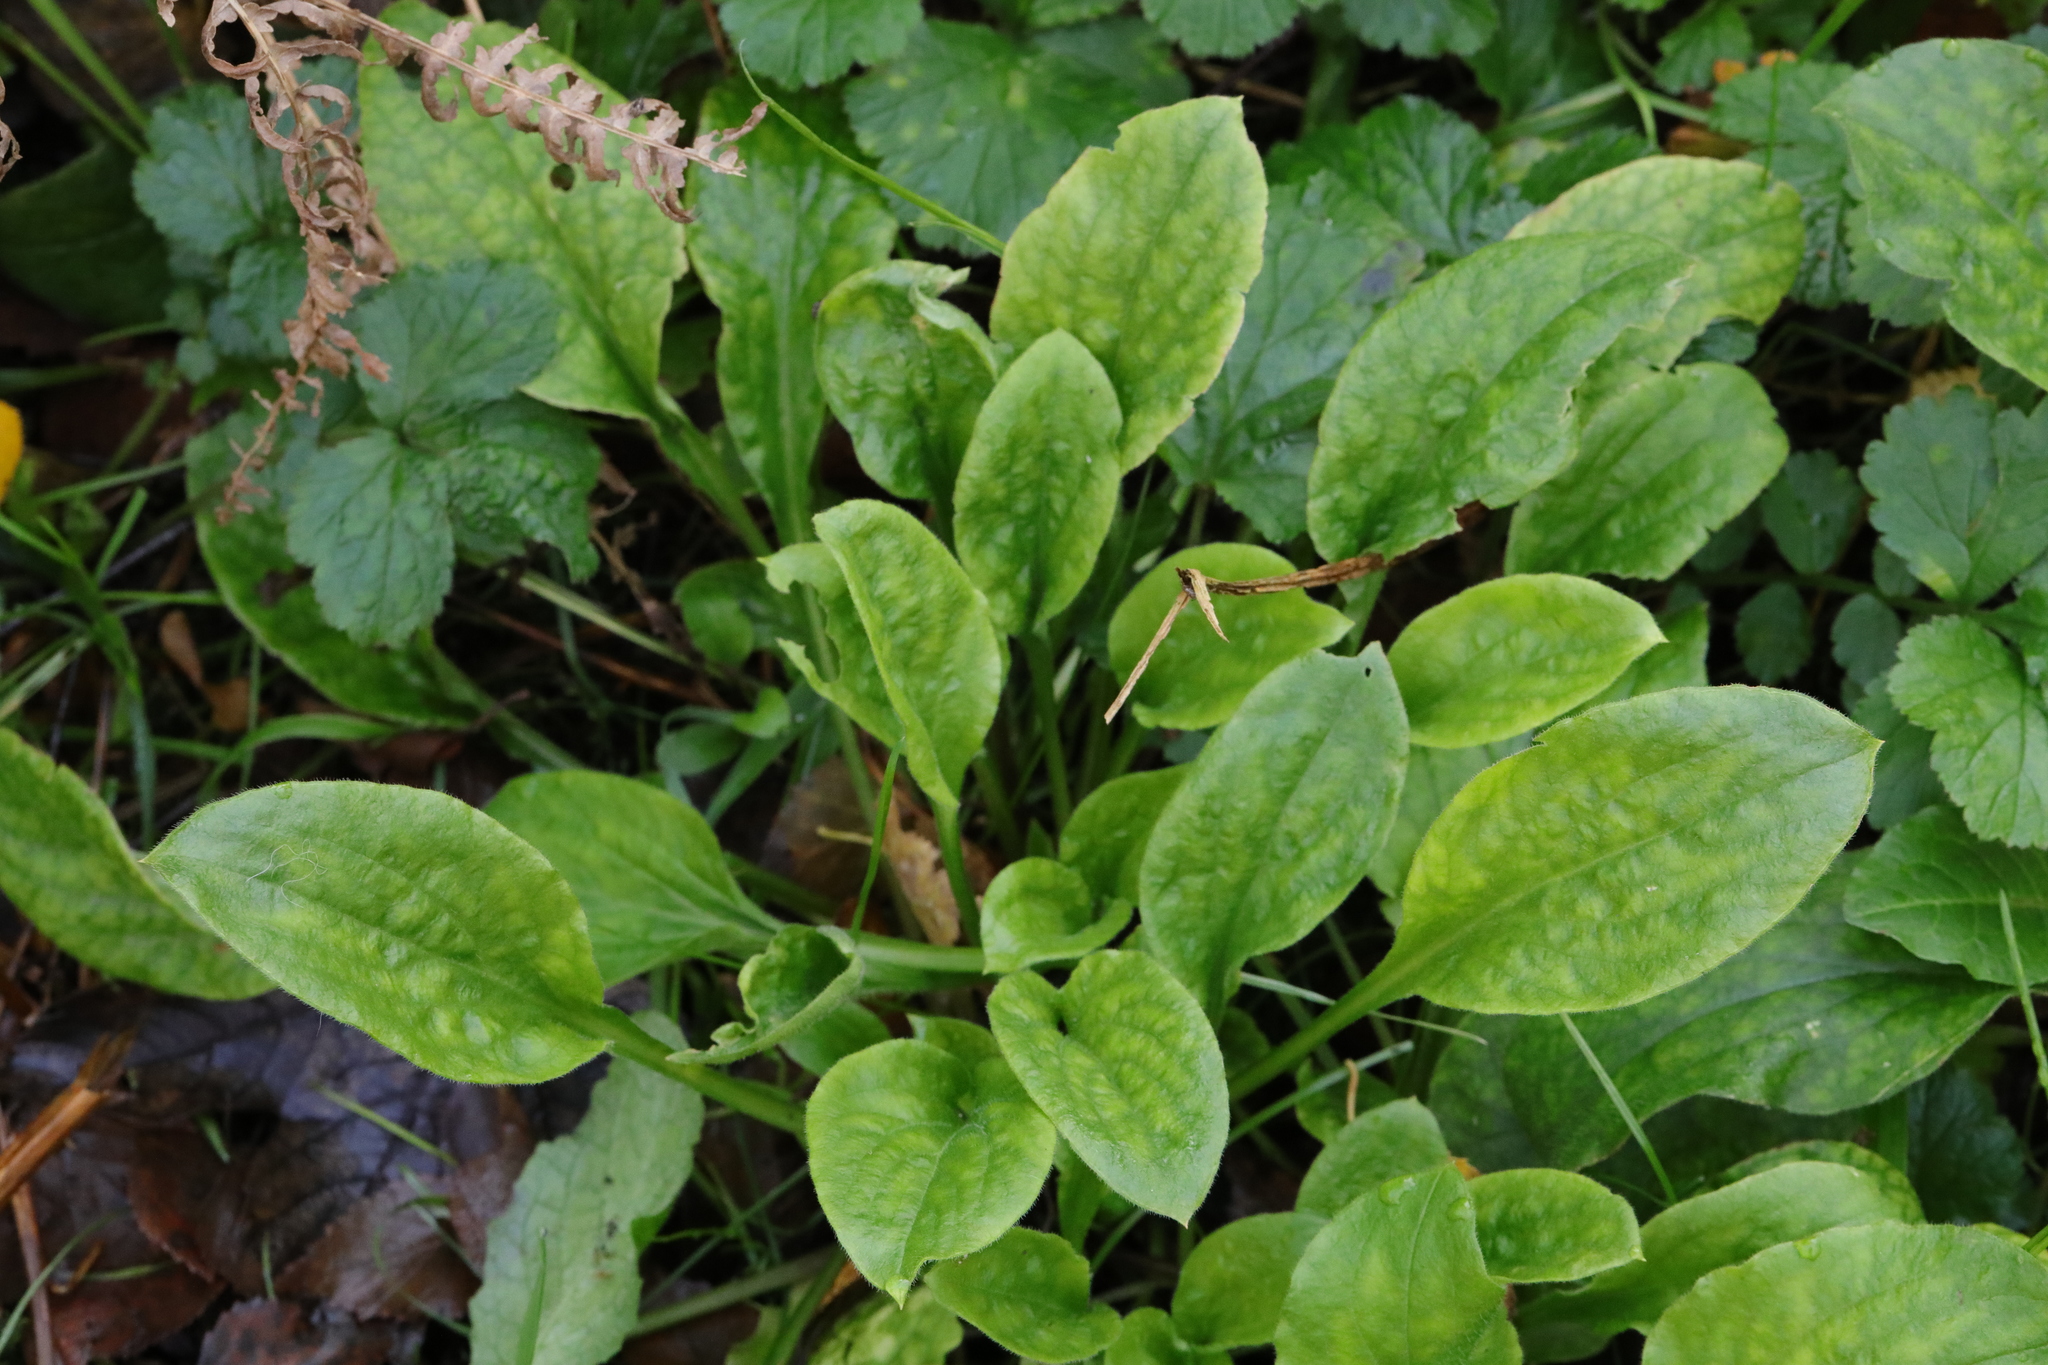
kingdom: Plantae
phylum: Tracheophyta
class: Magnoliopsida
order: Caryophyllales
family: Caryophyllaceae
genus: Silene
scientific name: Silene dioica
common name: Red campion
